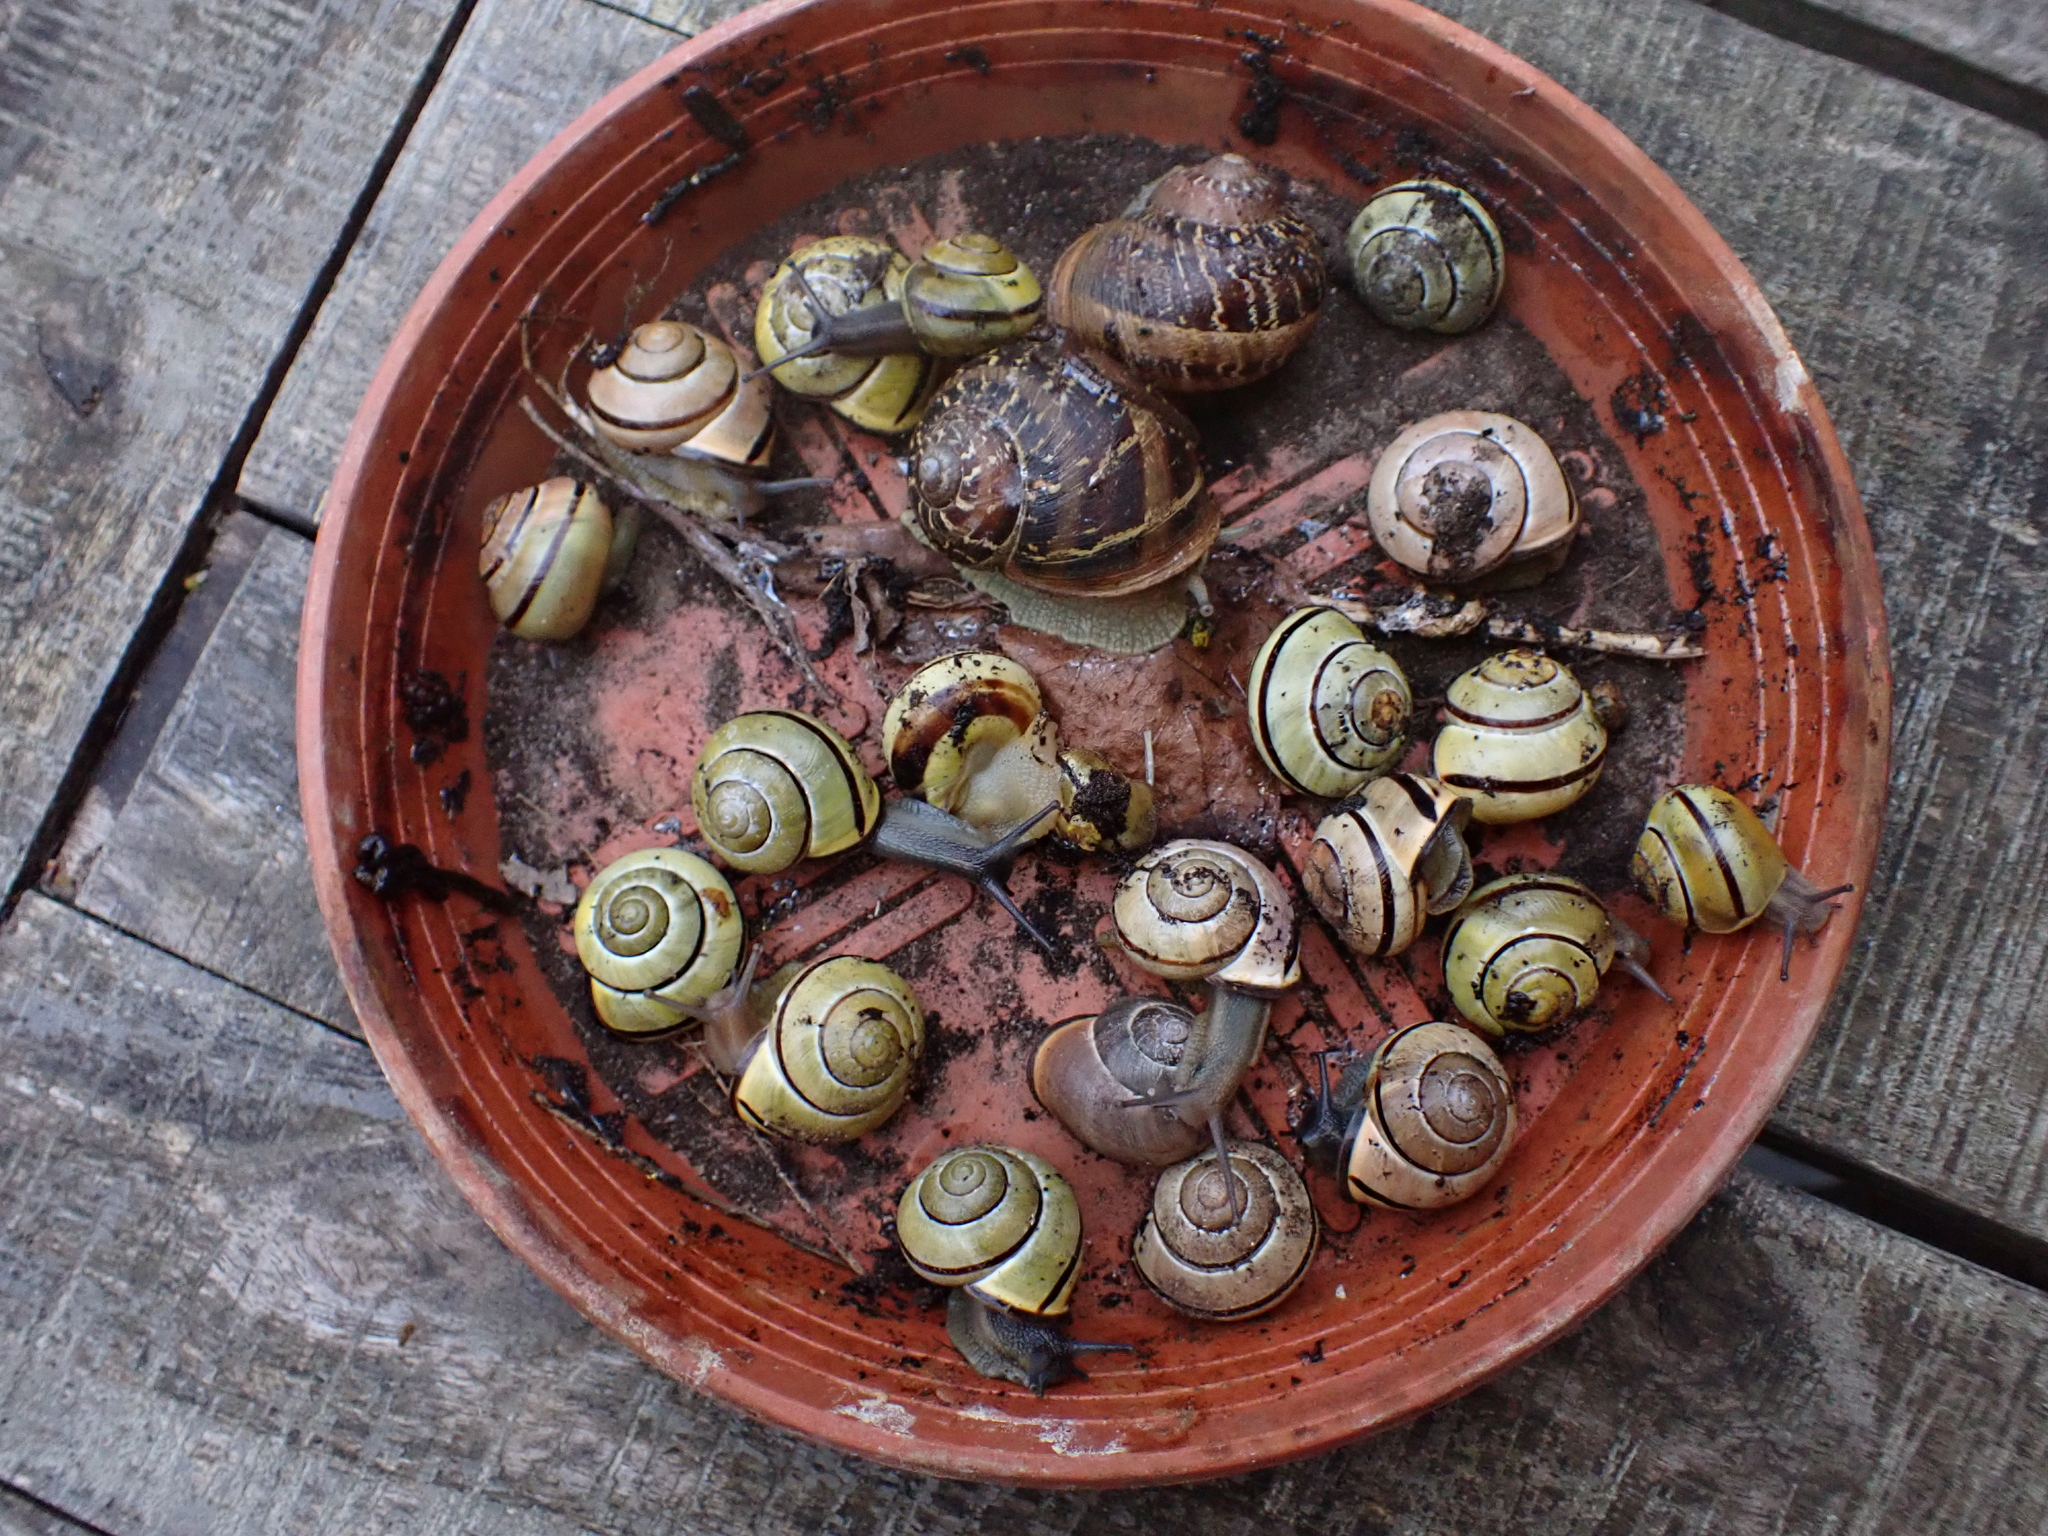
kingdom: Animalia
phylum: Mollusca
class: Gastropoda
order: Stylommatophora
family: Helicidae
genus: Cepaea
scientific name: Cepaea nemoralis
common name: Grovesnail
